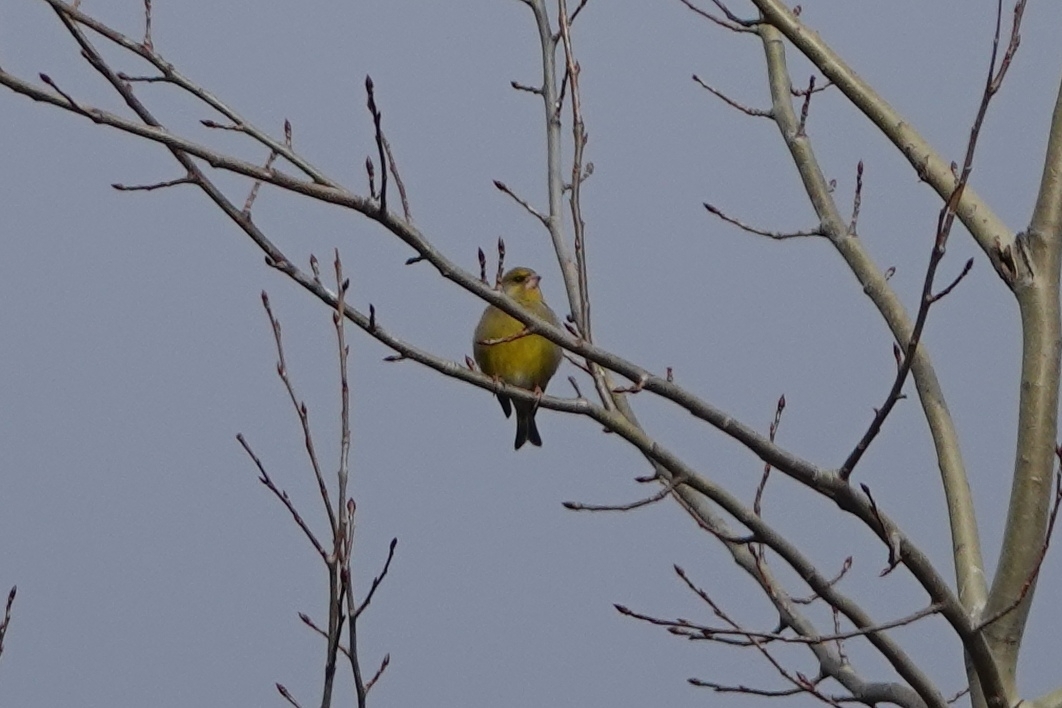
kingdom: Plantae
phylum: Tracheophyta
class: Liliopsida
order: Poales
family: Poaceae
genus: Chloris
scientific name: Chloris chloris
